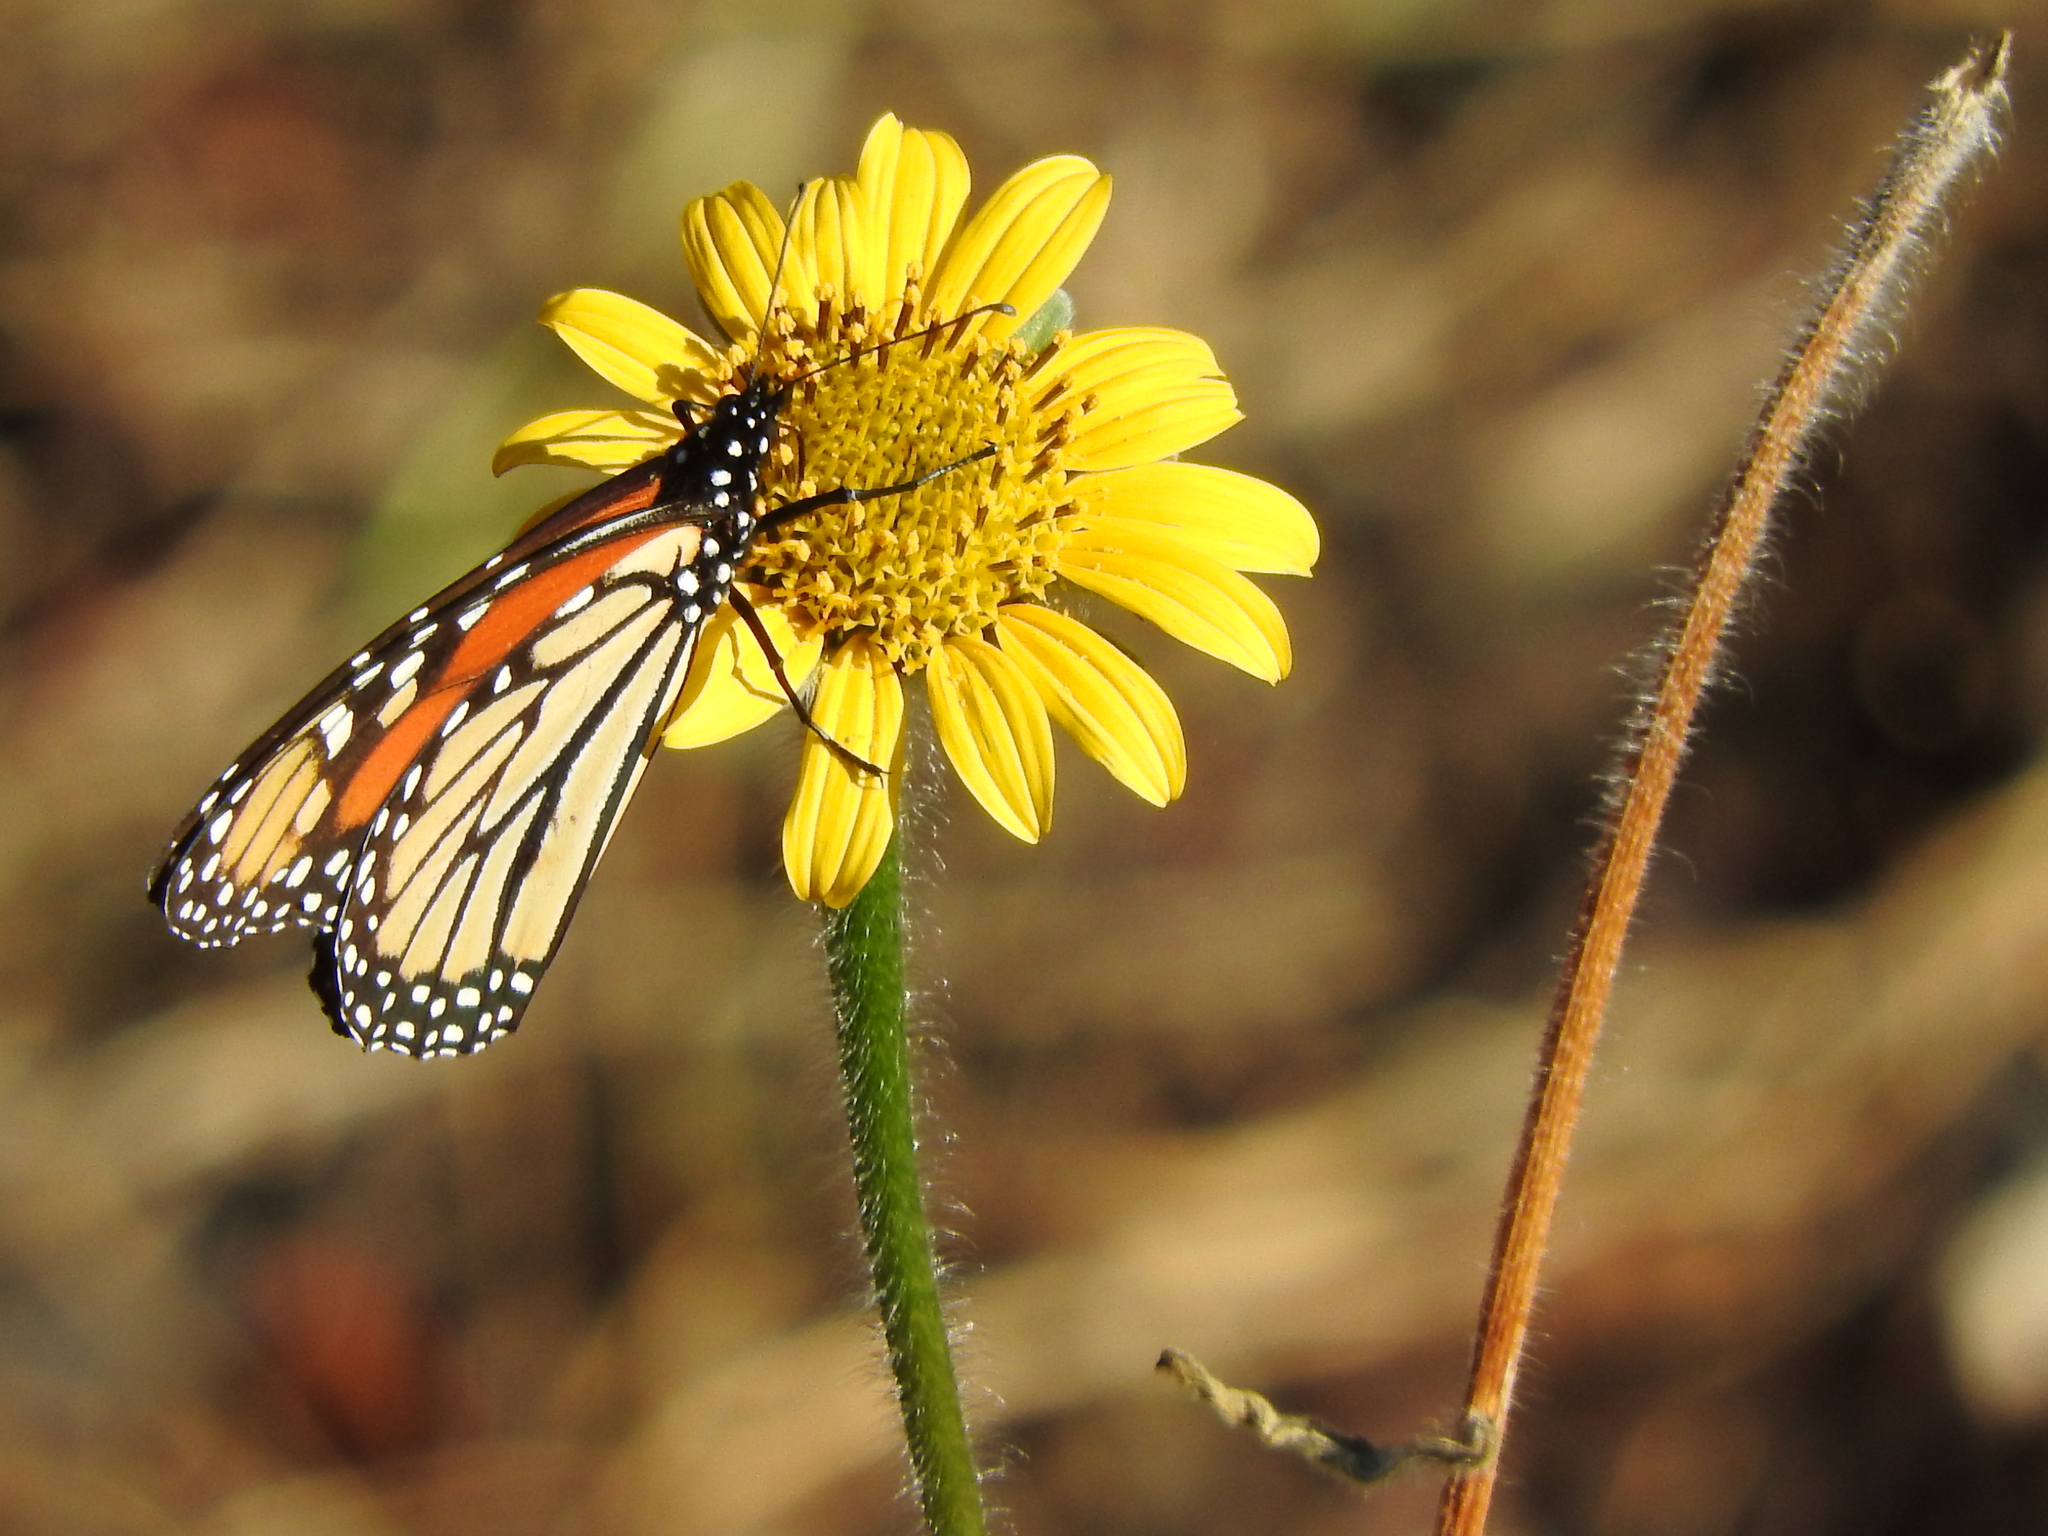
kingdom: Animalia
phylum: Arthropoda
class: Insecta
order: Lepidoptera
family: Nymphalidae
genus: Danaus
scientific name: Danaus plexippus
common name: Monarch
